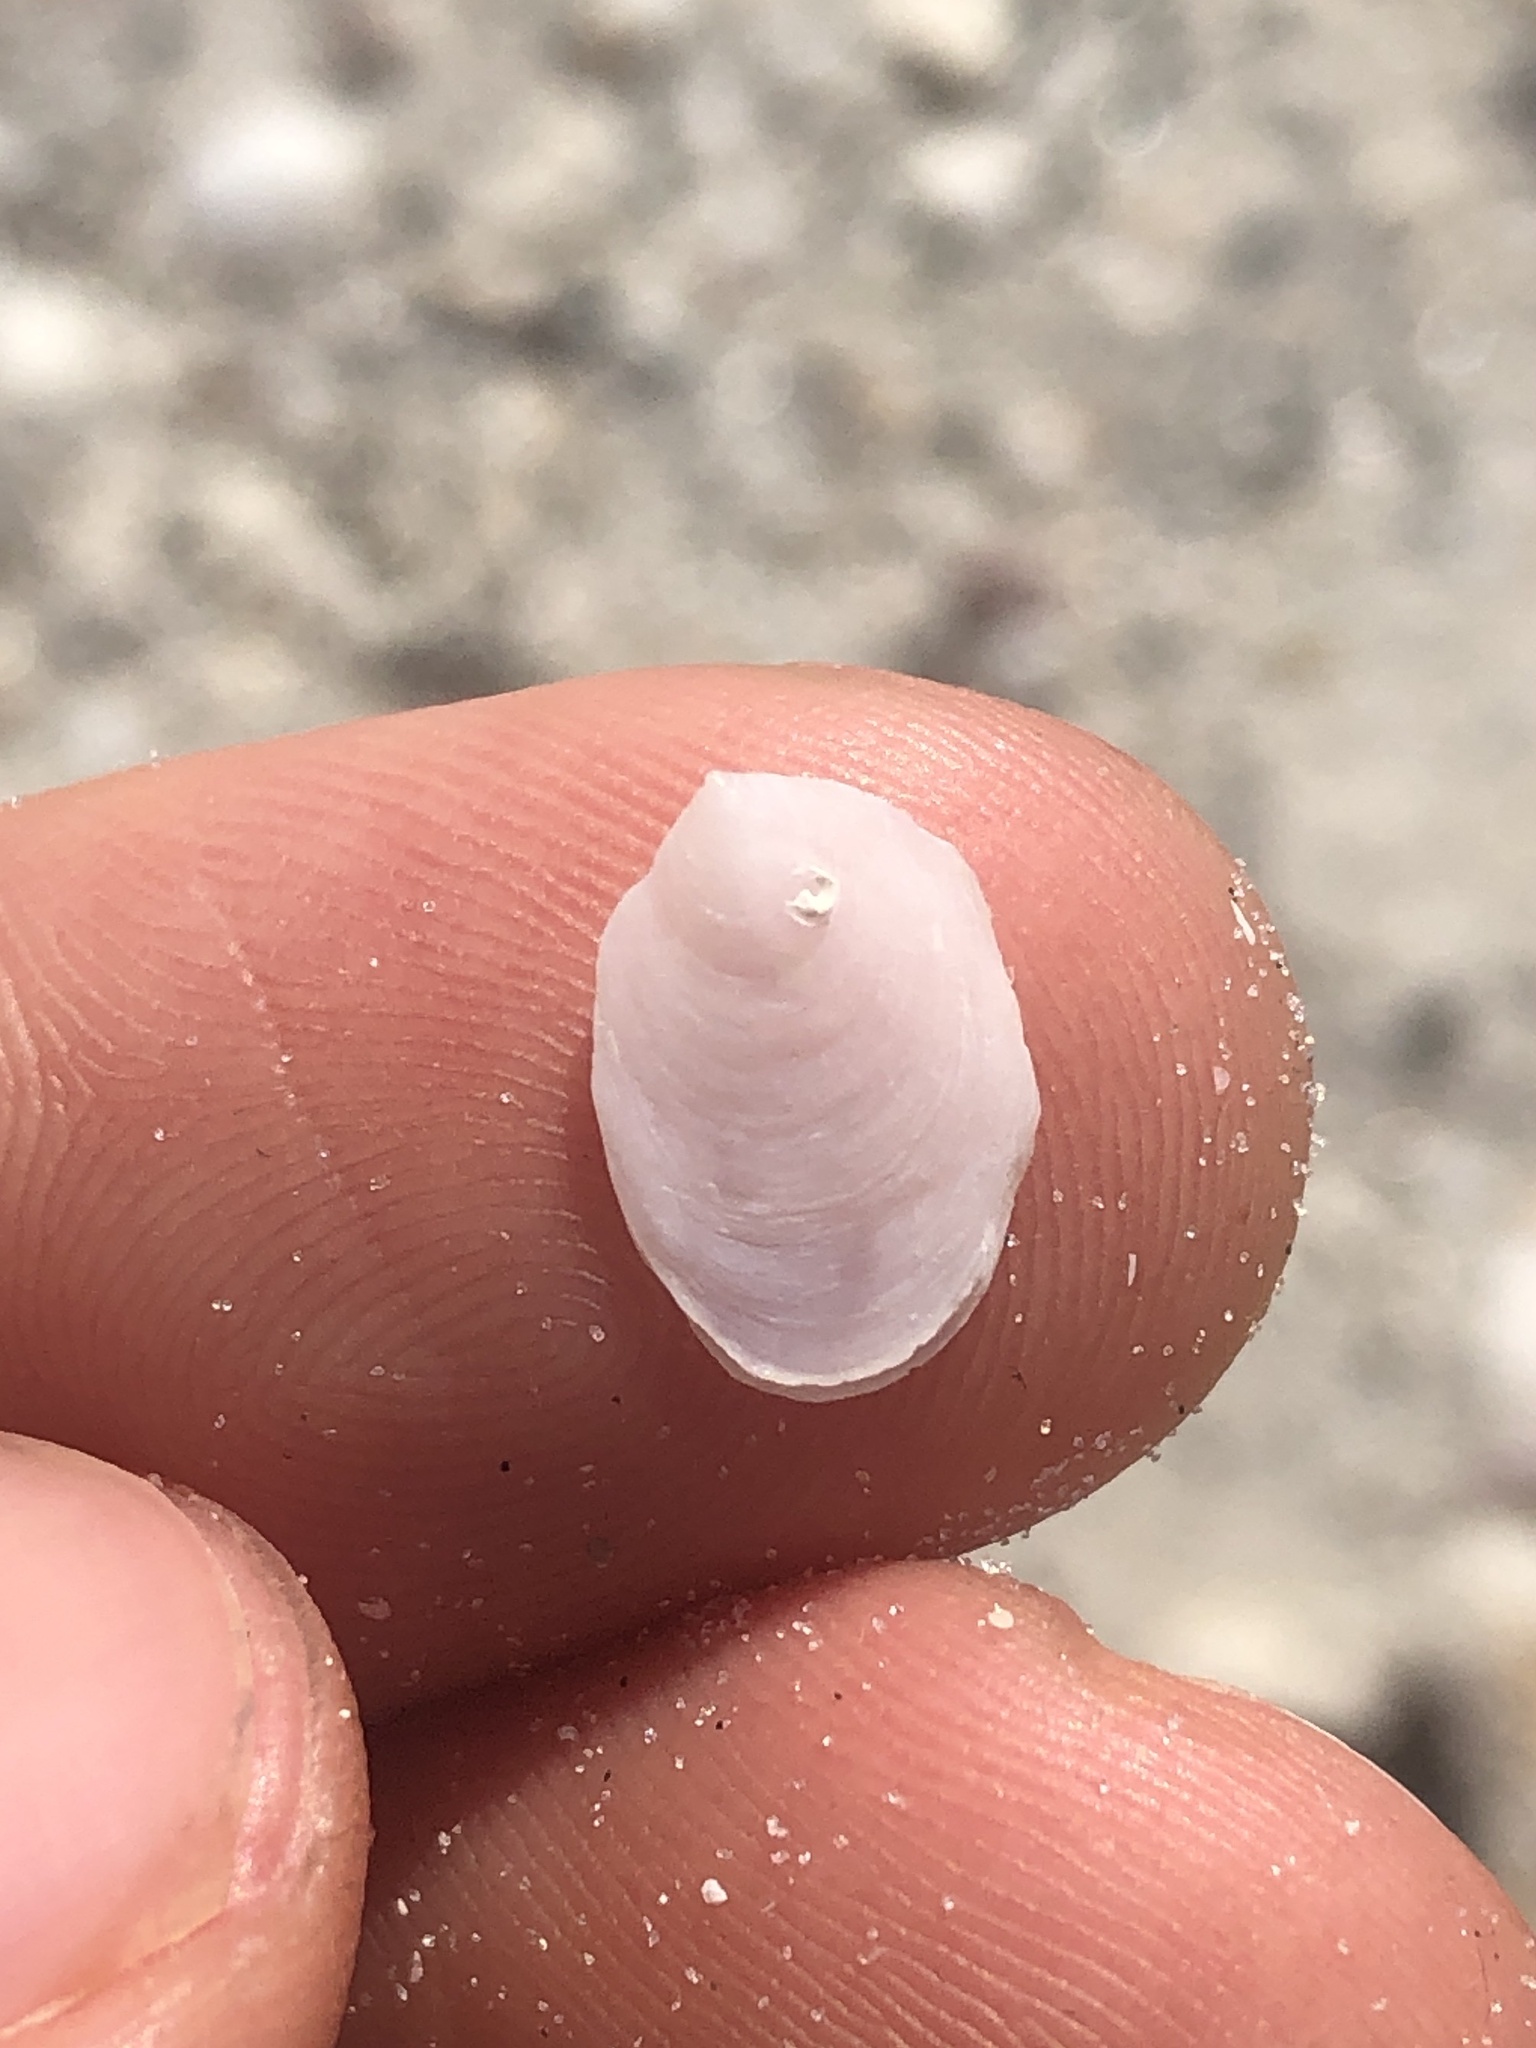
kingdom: Animalia
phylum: Mollusca
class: Gastropoda
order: Littorinimorpha
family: Calyptraeidae
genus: Crepidula
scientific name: Crepidula
